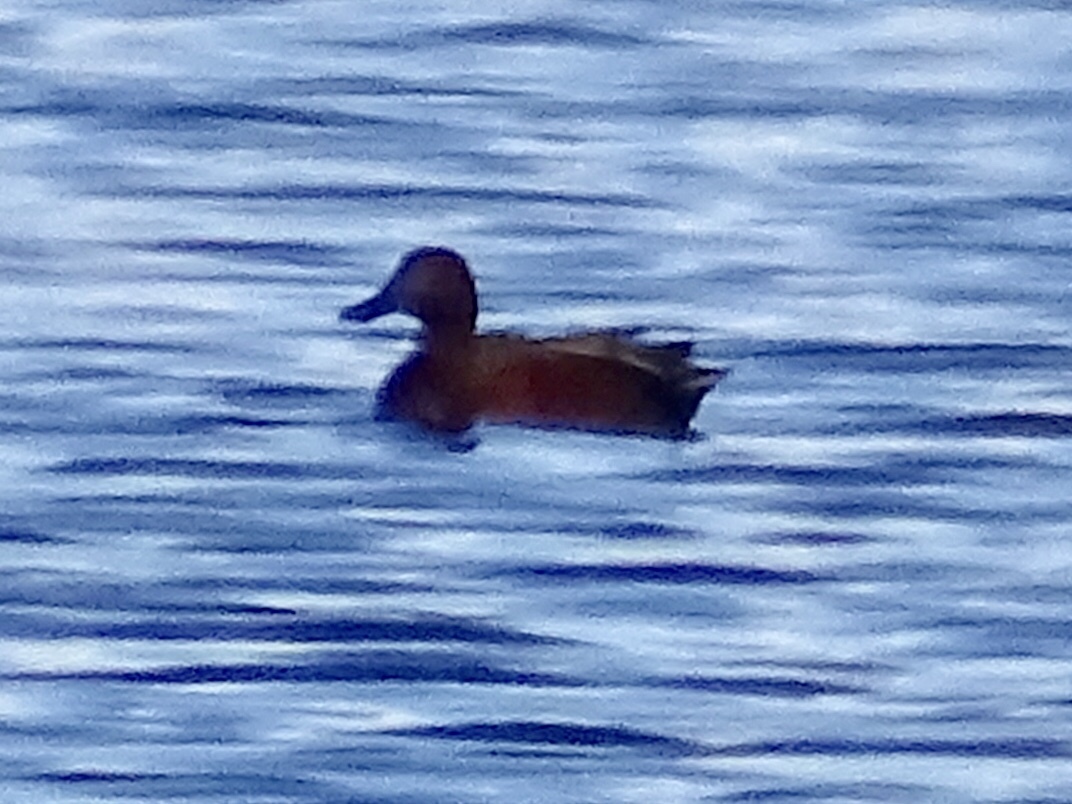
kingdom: Animalia
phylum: Chordata
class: Aves
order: Anseriformes
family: Anatidae
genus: Spatula
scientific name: Spatula cyanoptera
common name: Cinnamon teal
